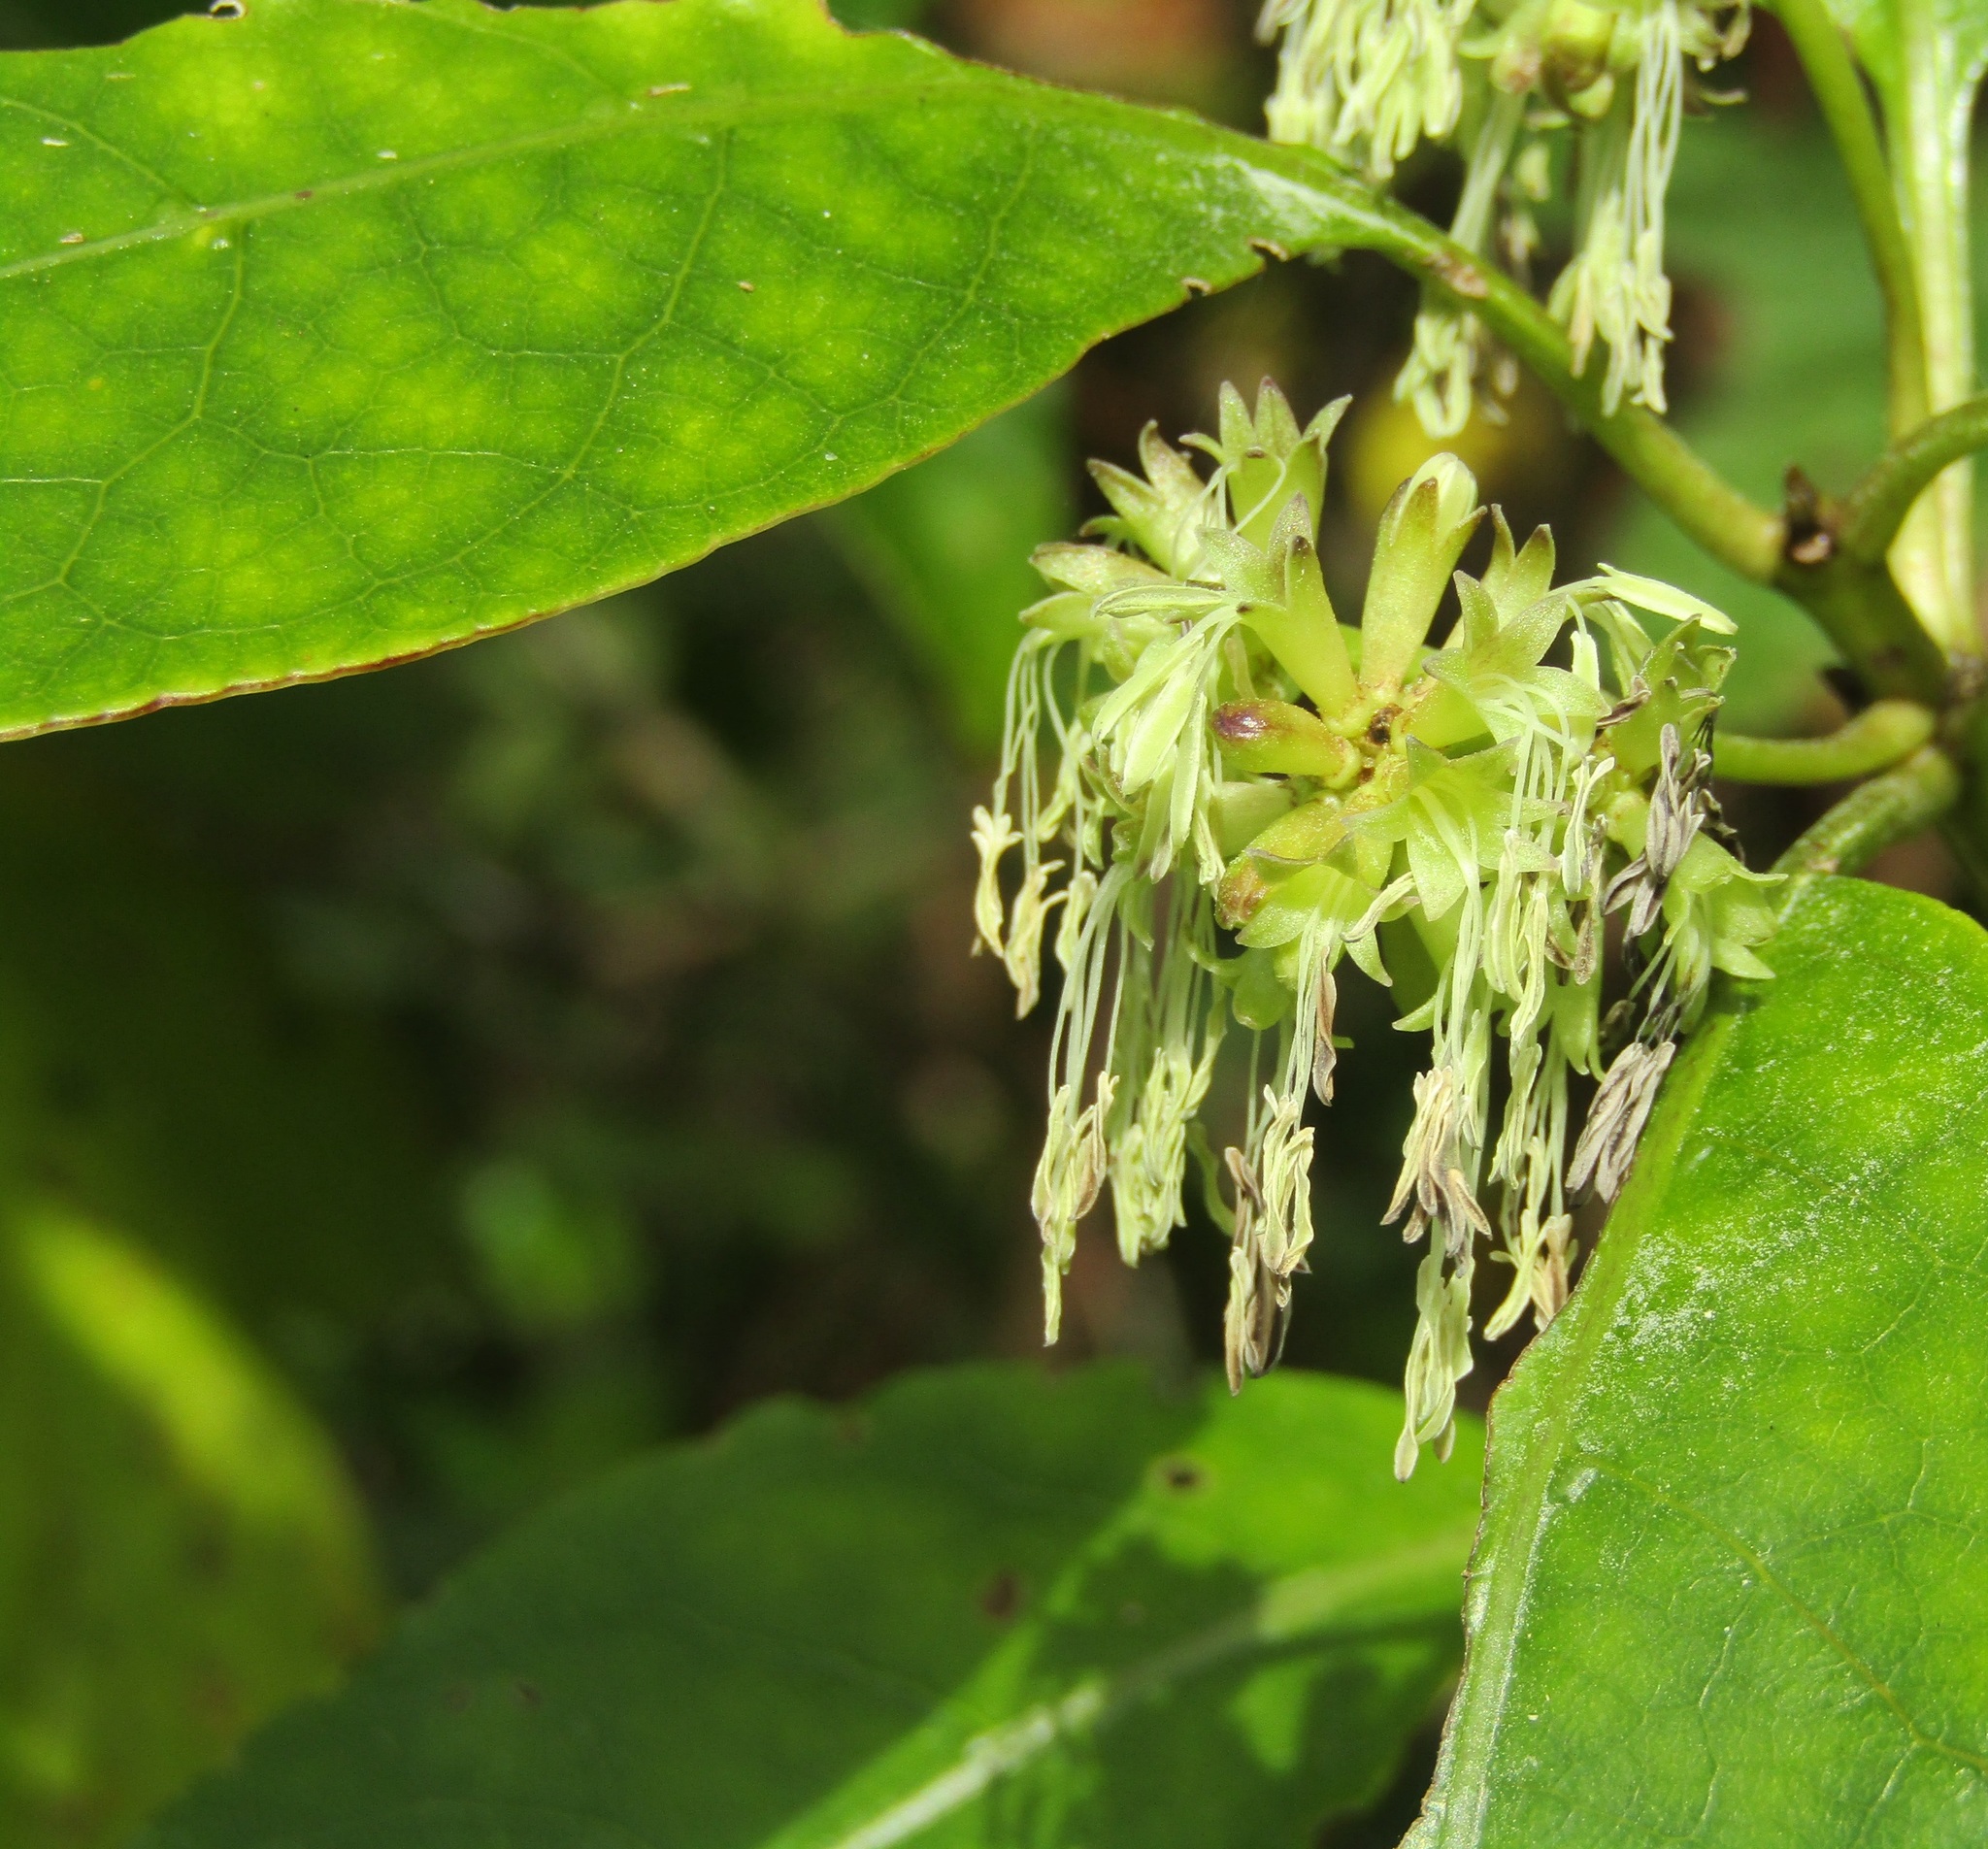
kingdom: Plantae
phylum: Tracheophyta
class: Magnoliopsida
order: Gentianales
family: Rubiaceae
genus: Coprosma
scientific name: Coprosma autumnalis
